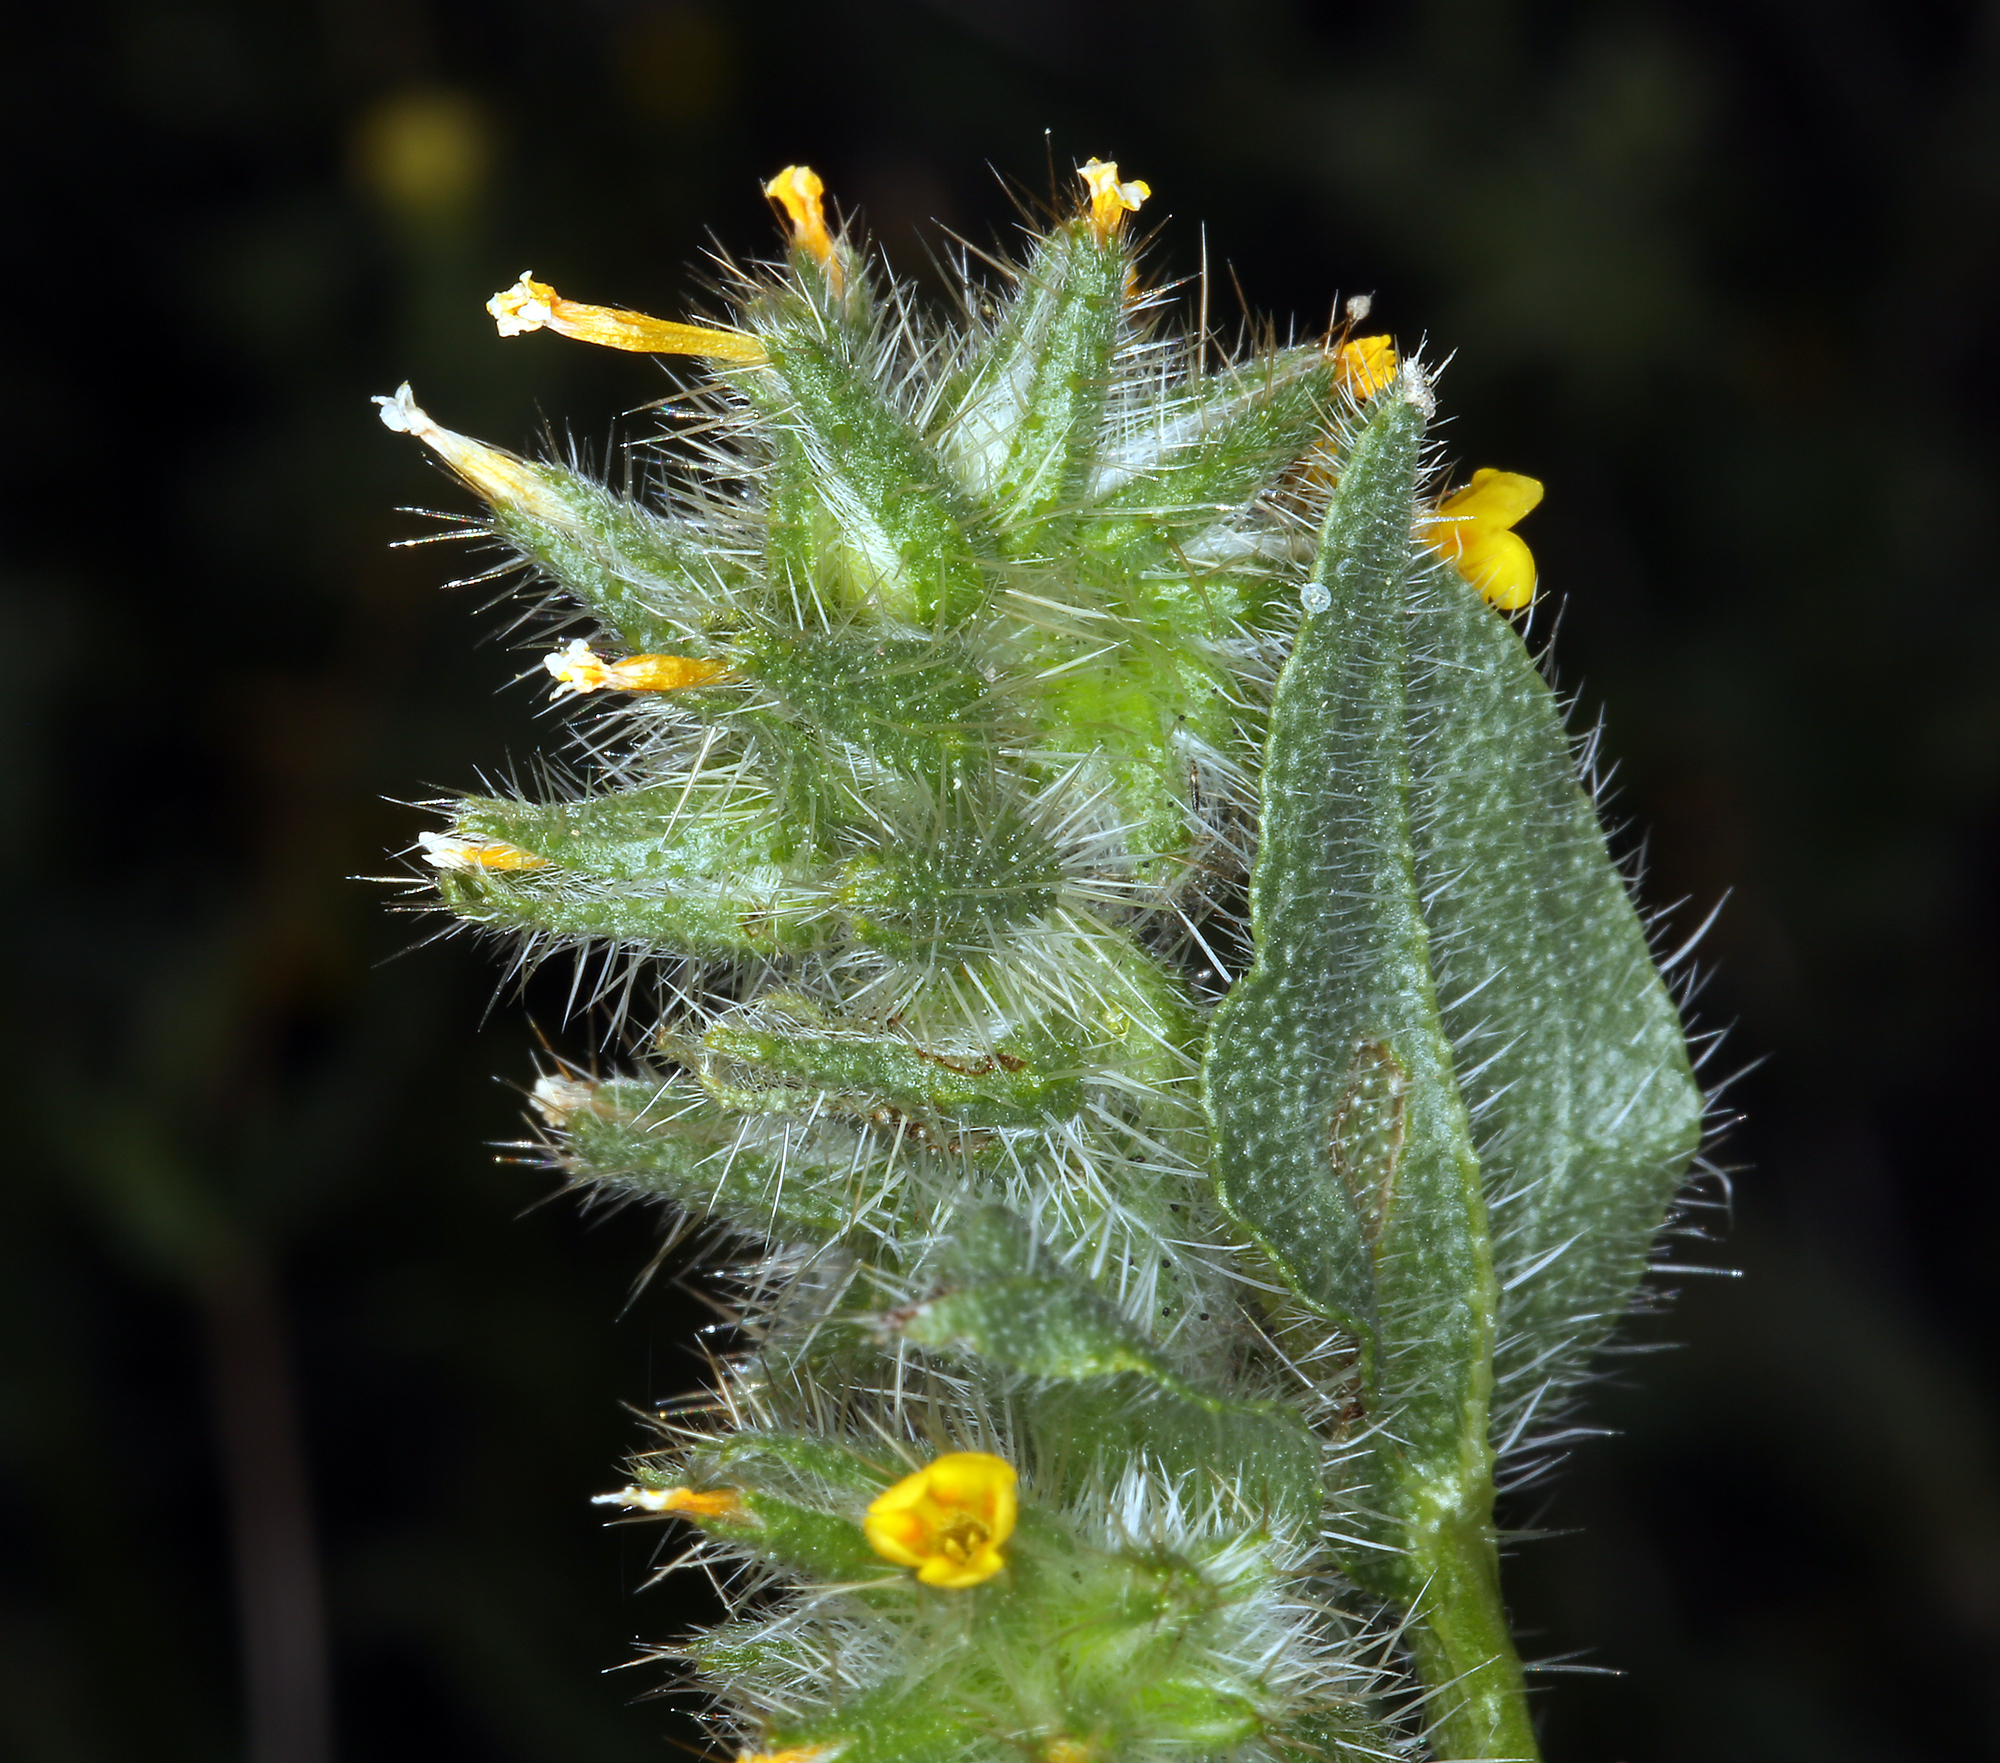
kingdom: Plantae
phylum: Tracheophyta
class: Magnoliopsida
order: Boraginales
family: Boraginaceae
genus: Amsinckia
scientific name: Amsinckia tessellata
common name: Tessellate fiddleneck
